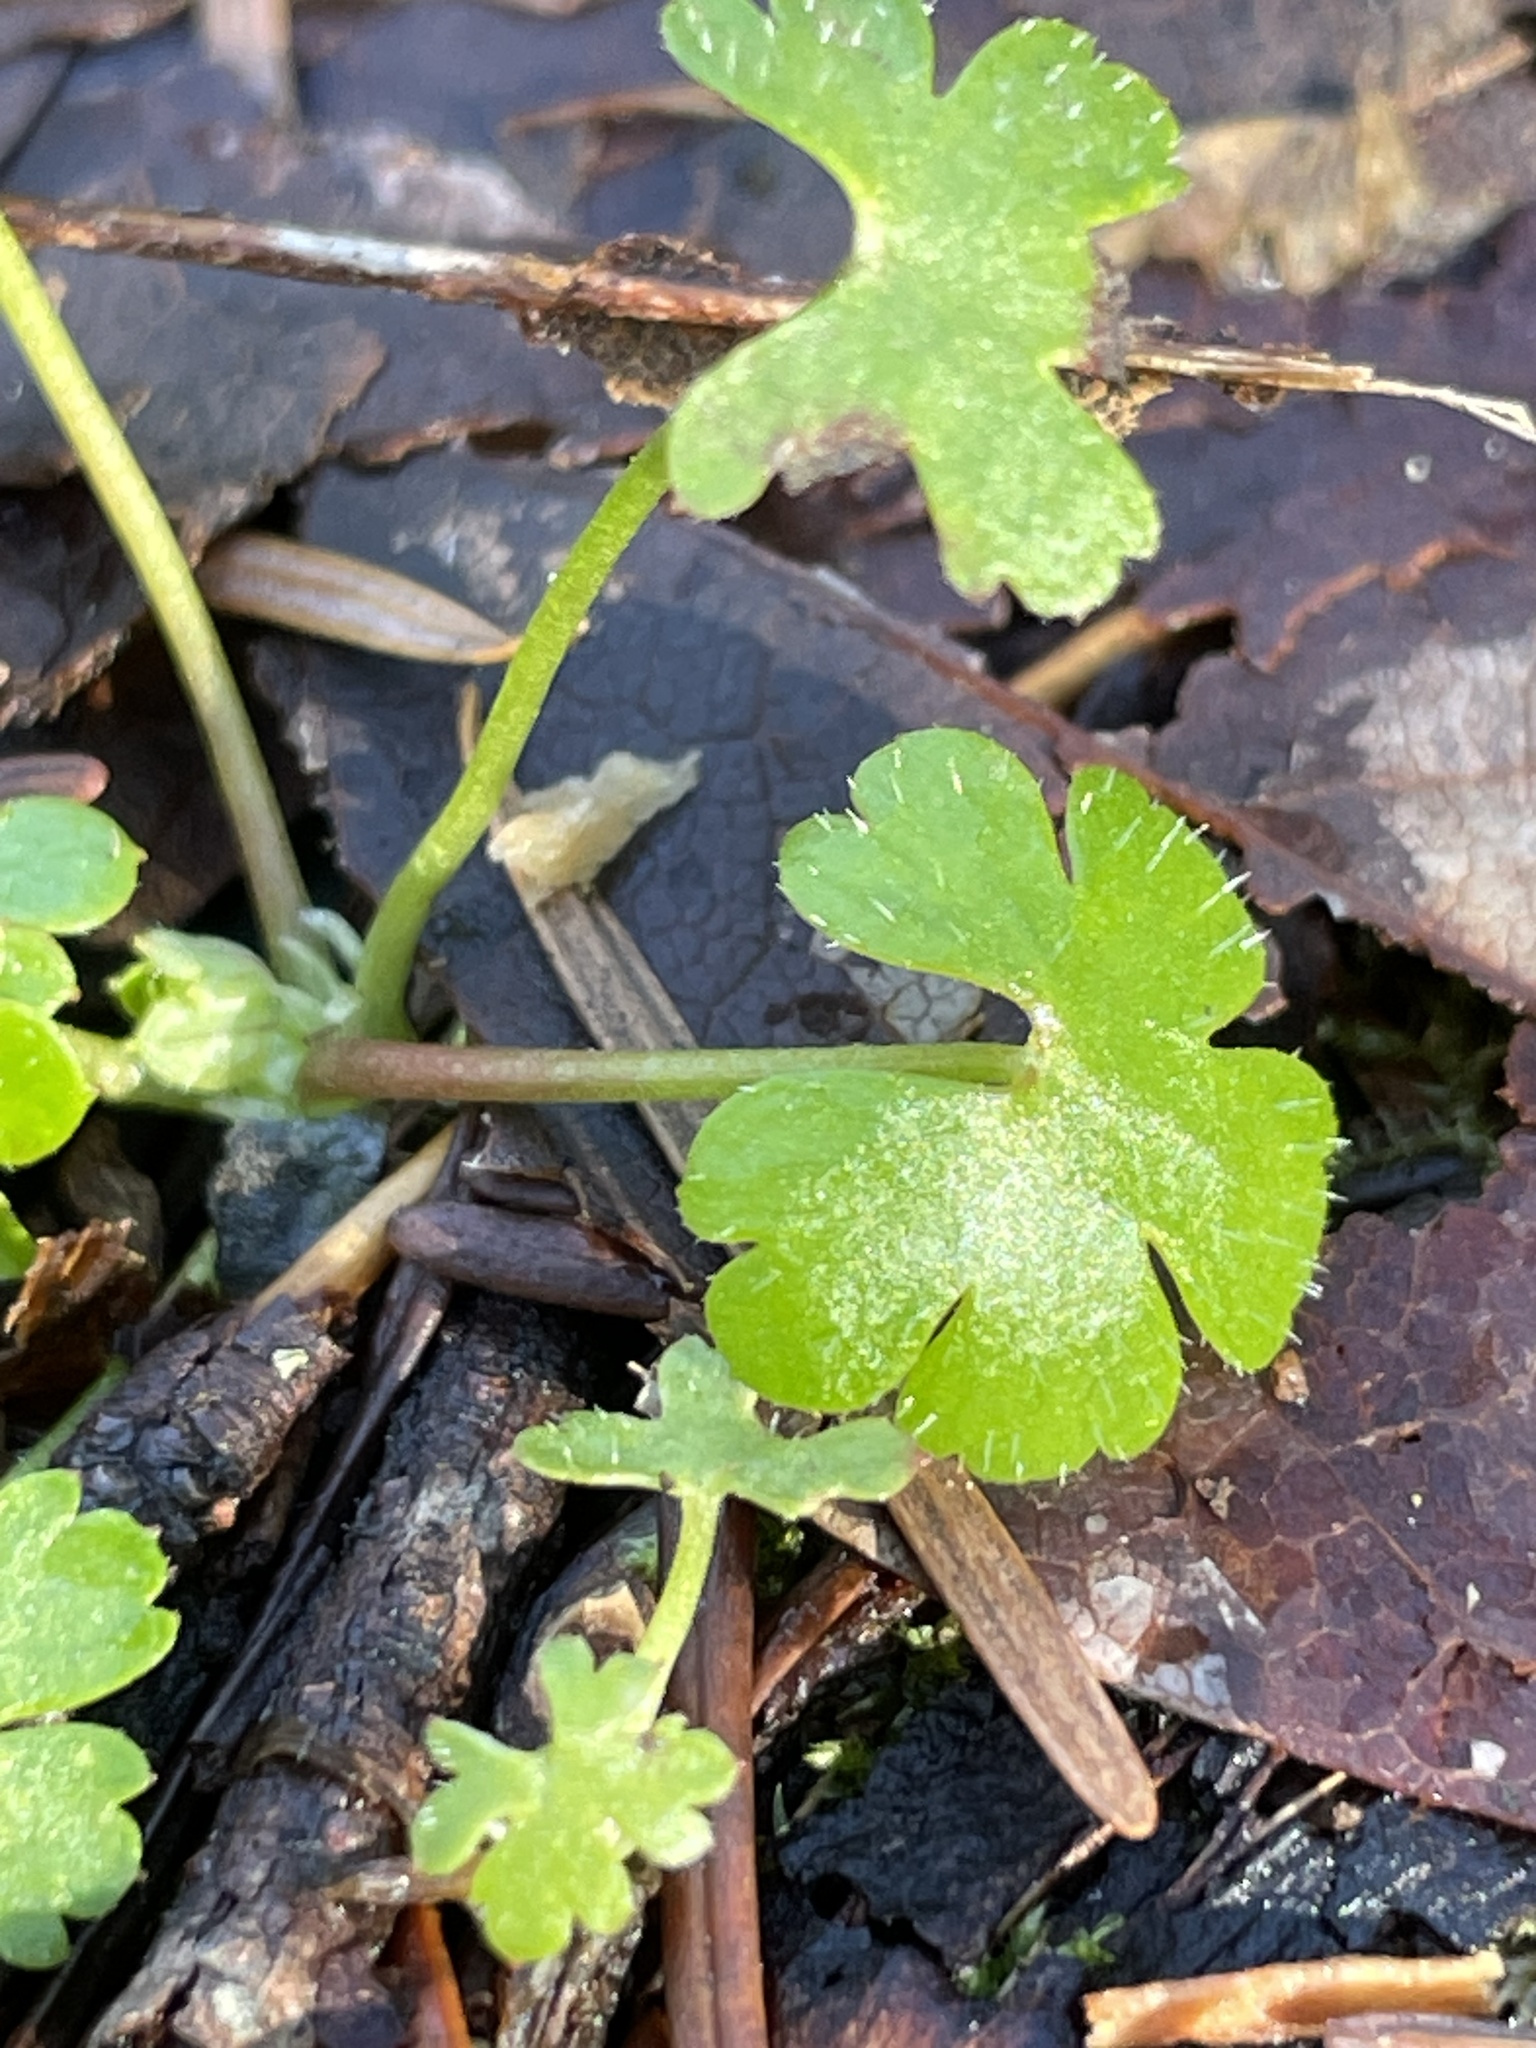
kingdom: Plantae
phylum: Tracheophyta
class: Magnoliopsida
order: Geraniales
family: Geraniaceae
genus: Geranium
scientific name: Geranium lucidum
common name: Shining crane's-bill
